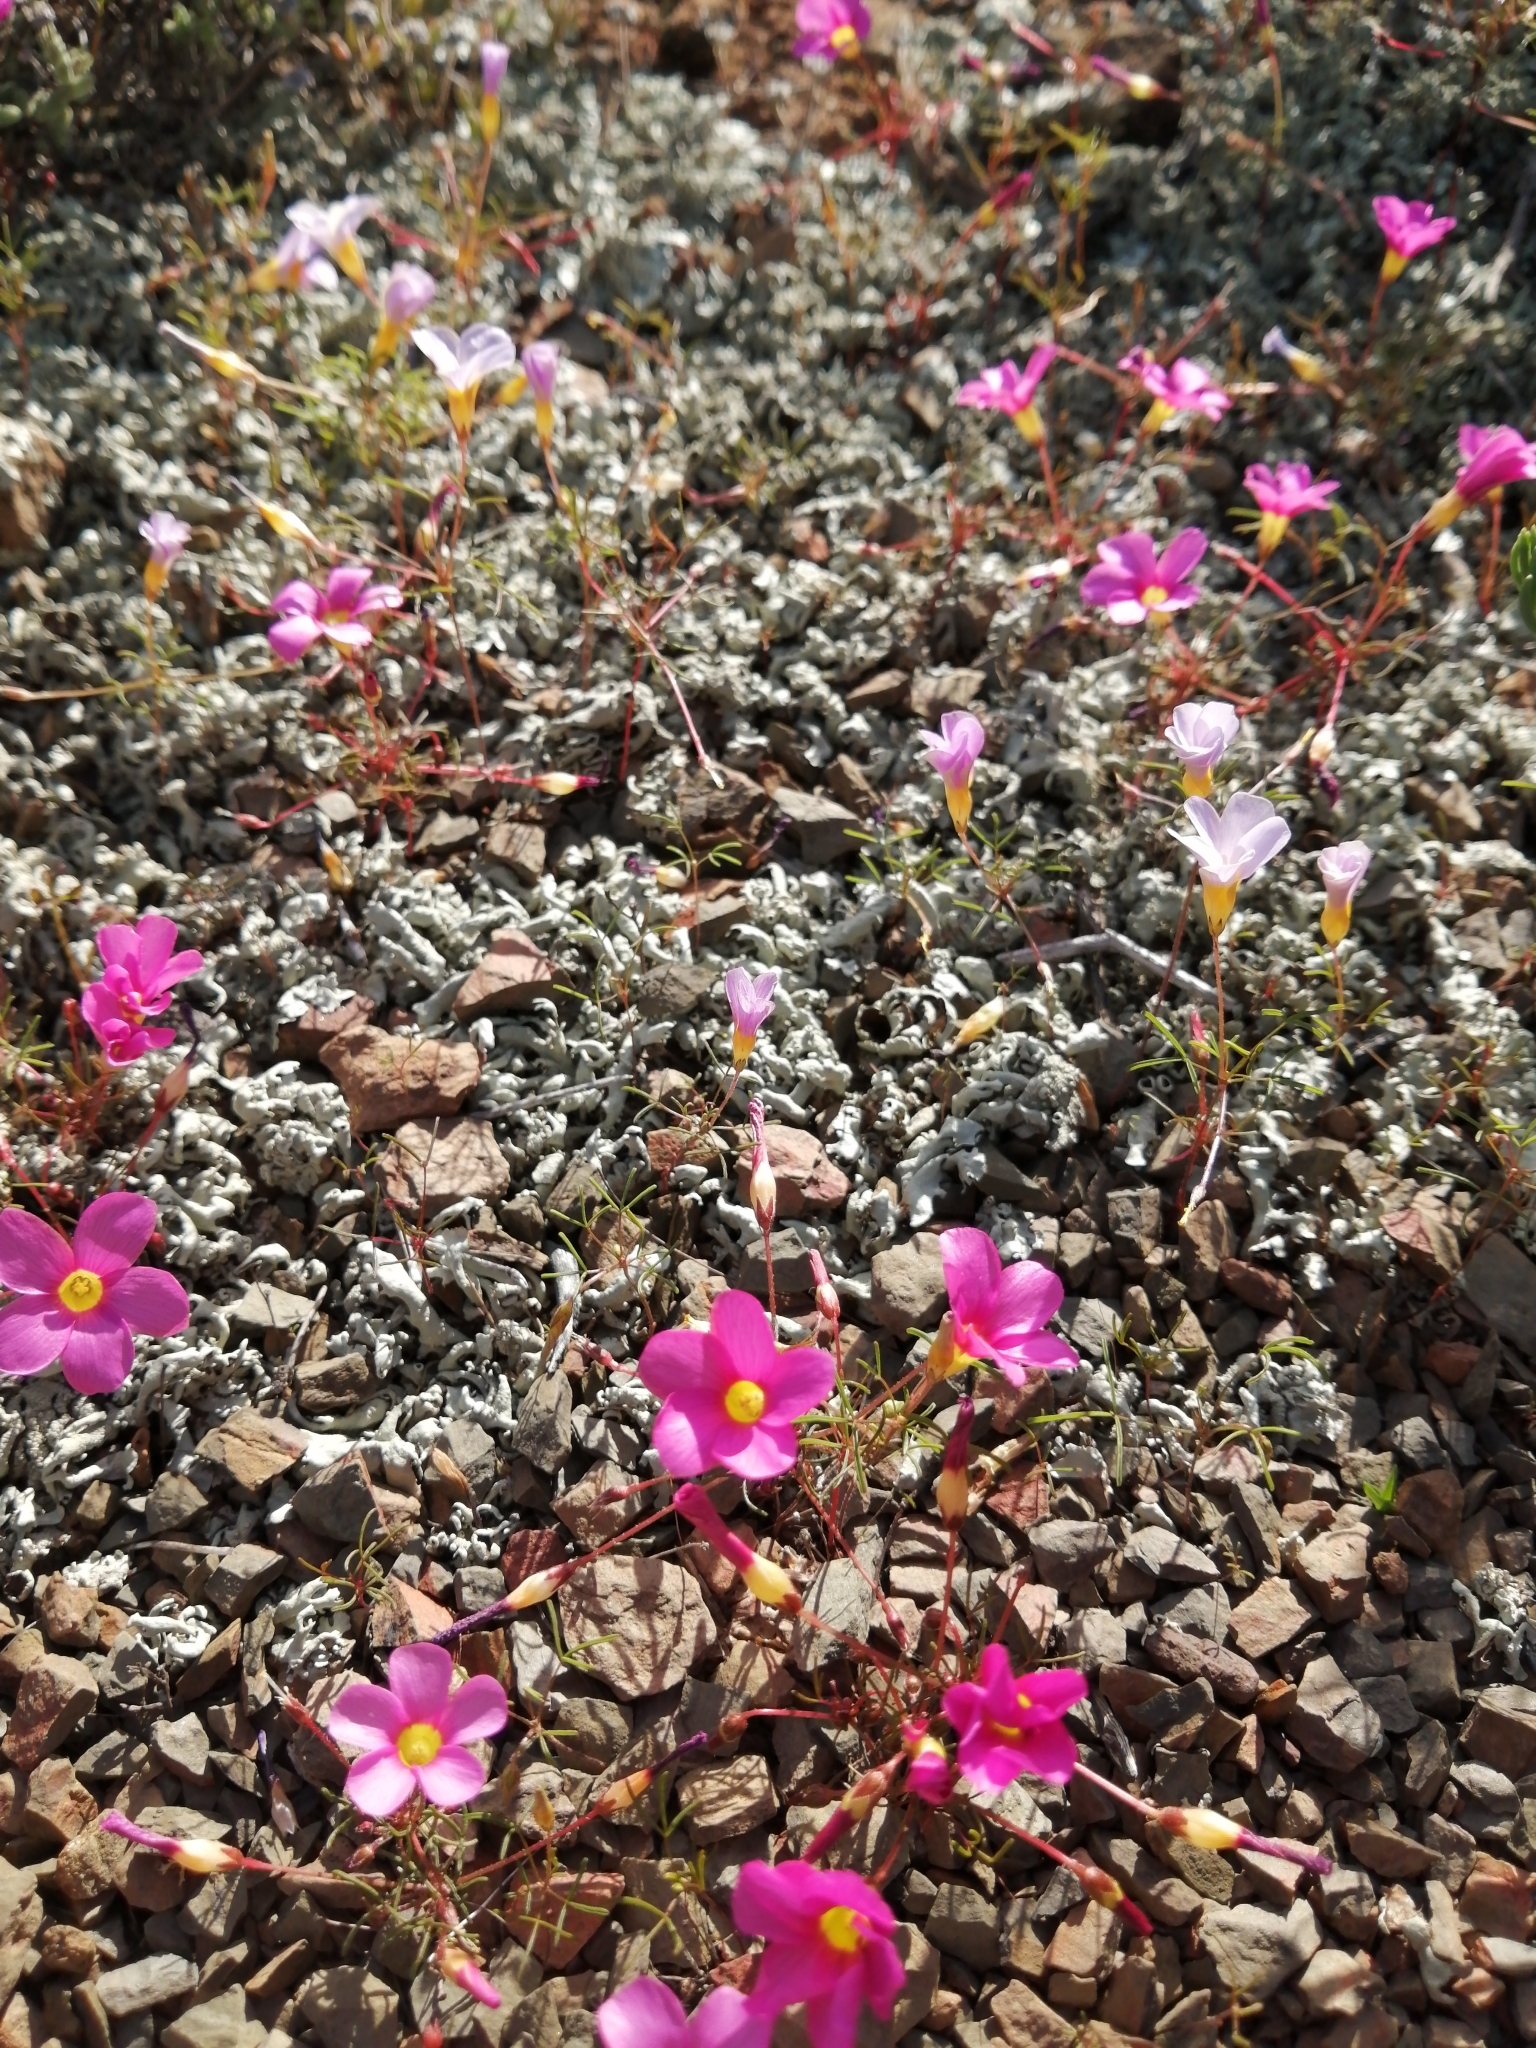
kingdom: Plantae
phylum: Tracheophyta
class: Magnoliopsida
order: Oxalidales
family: Oxalidaceae
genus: Oxalis
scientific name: Oxalis leptogramma
